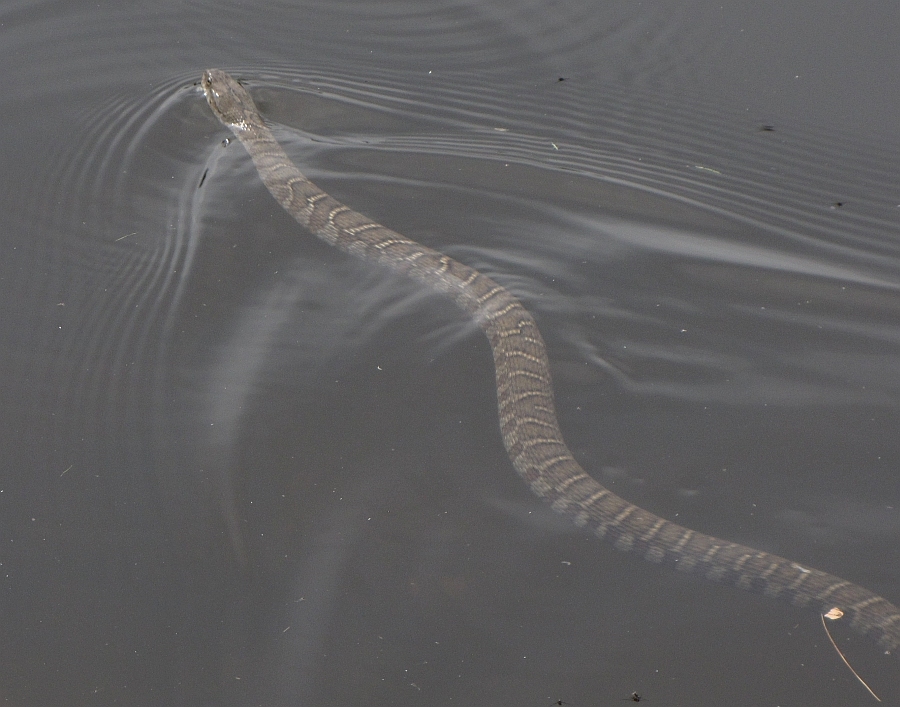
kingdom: Animalia
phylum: Chordata
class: Squamata
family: Colubridae
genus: Nerodia
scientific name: Nerodia sipedon
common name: Northern water snake
